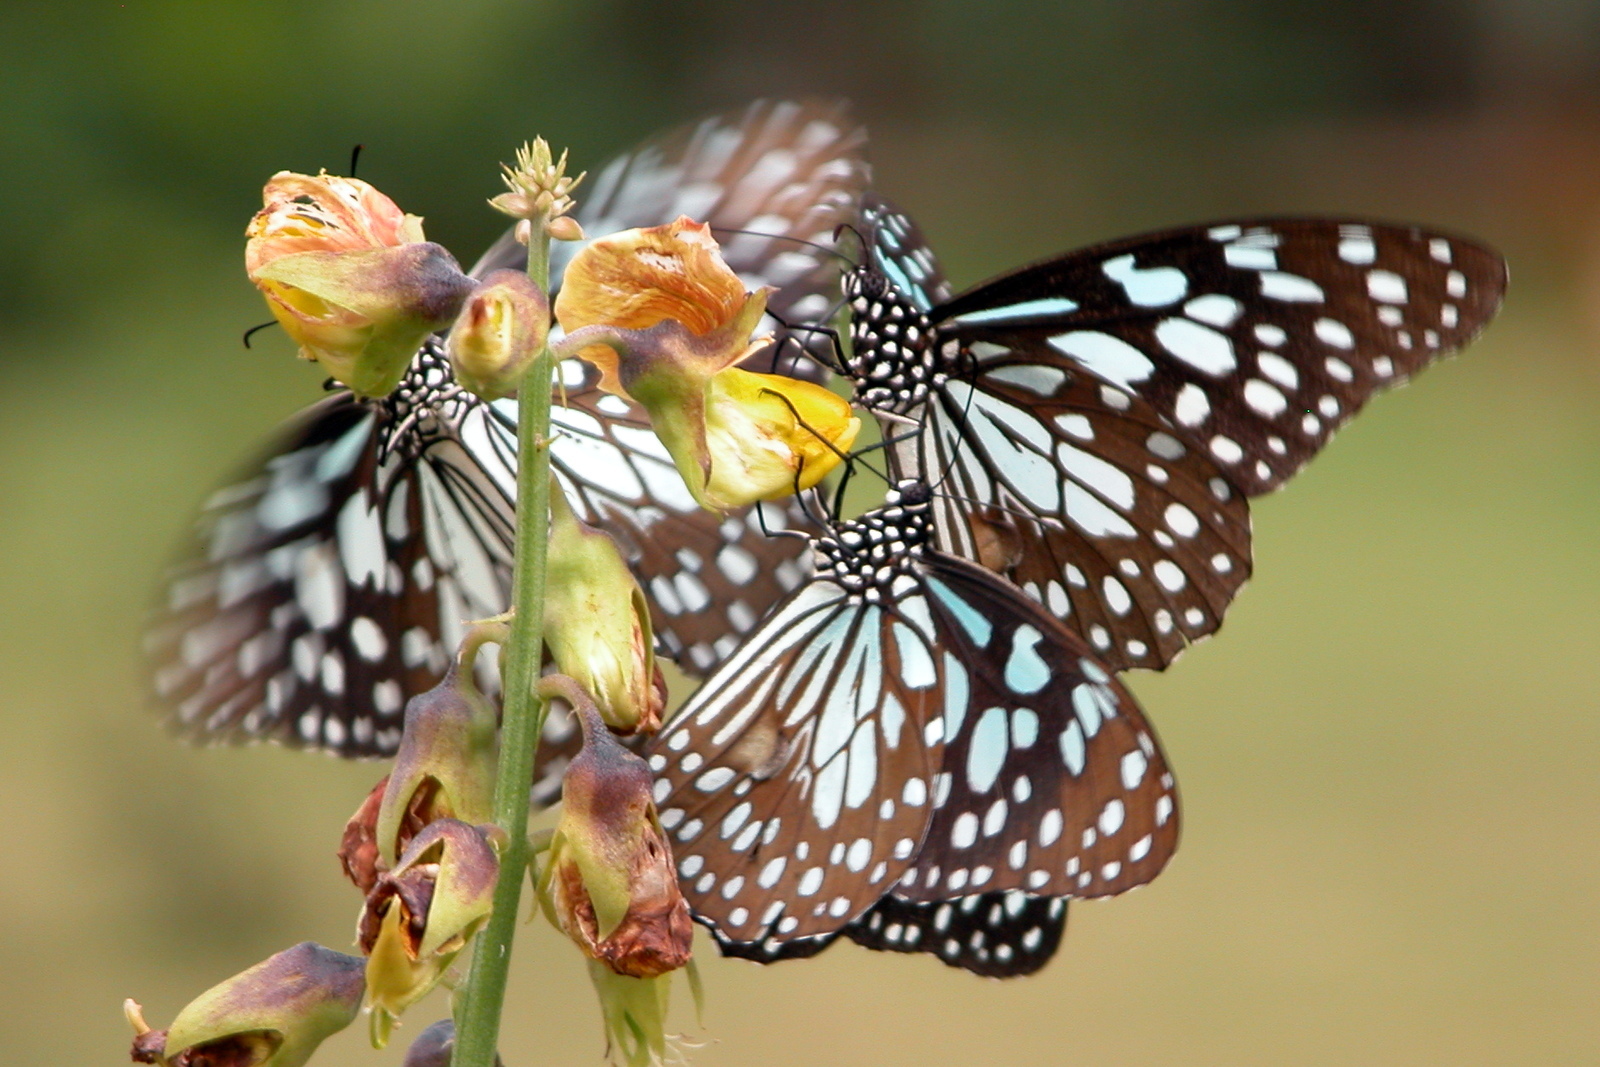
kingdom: Animalia
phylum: Arthropoda
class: Insecta
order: Lepidoptera
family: Nymphalidae
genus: Tirumala
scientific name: Tirumala limniace
